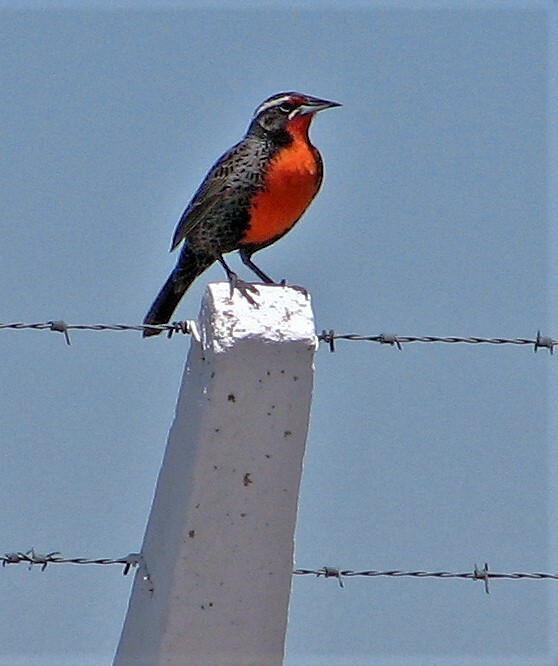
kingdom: Animalia
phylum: Chordata
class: Aves
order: Passeriformes
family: Icteridae
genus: Sturnella
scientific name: Sturnella loyca
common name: Long-tailed meadowlark
